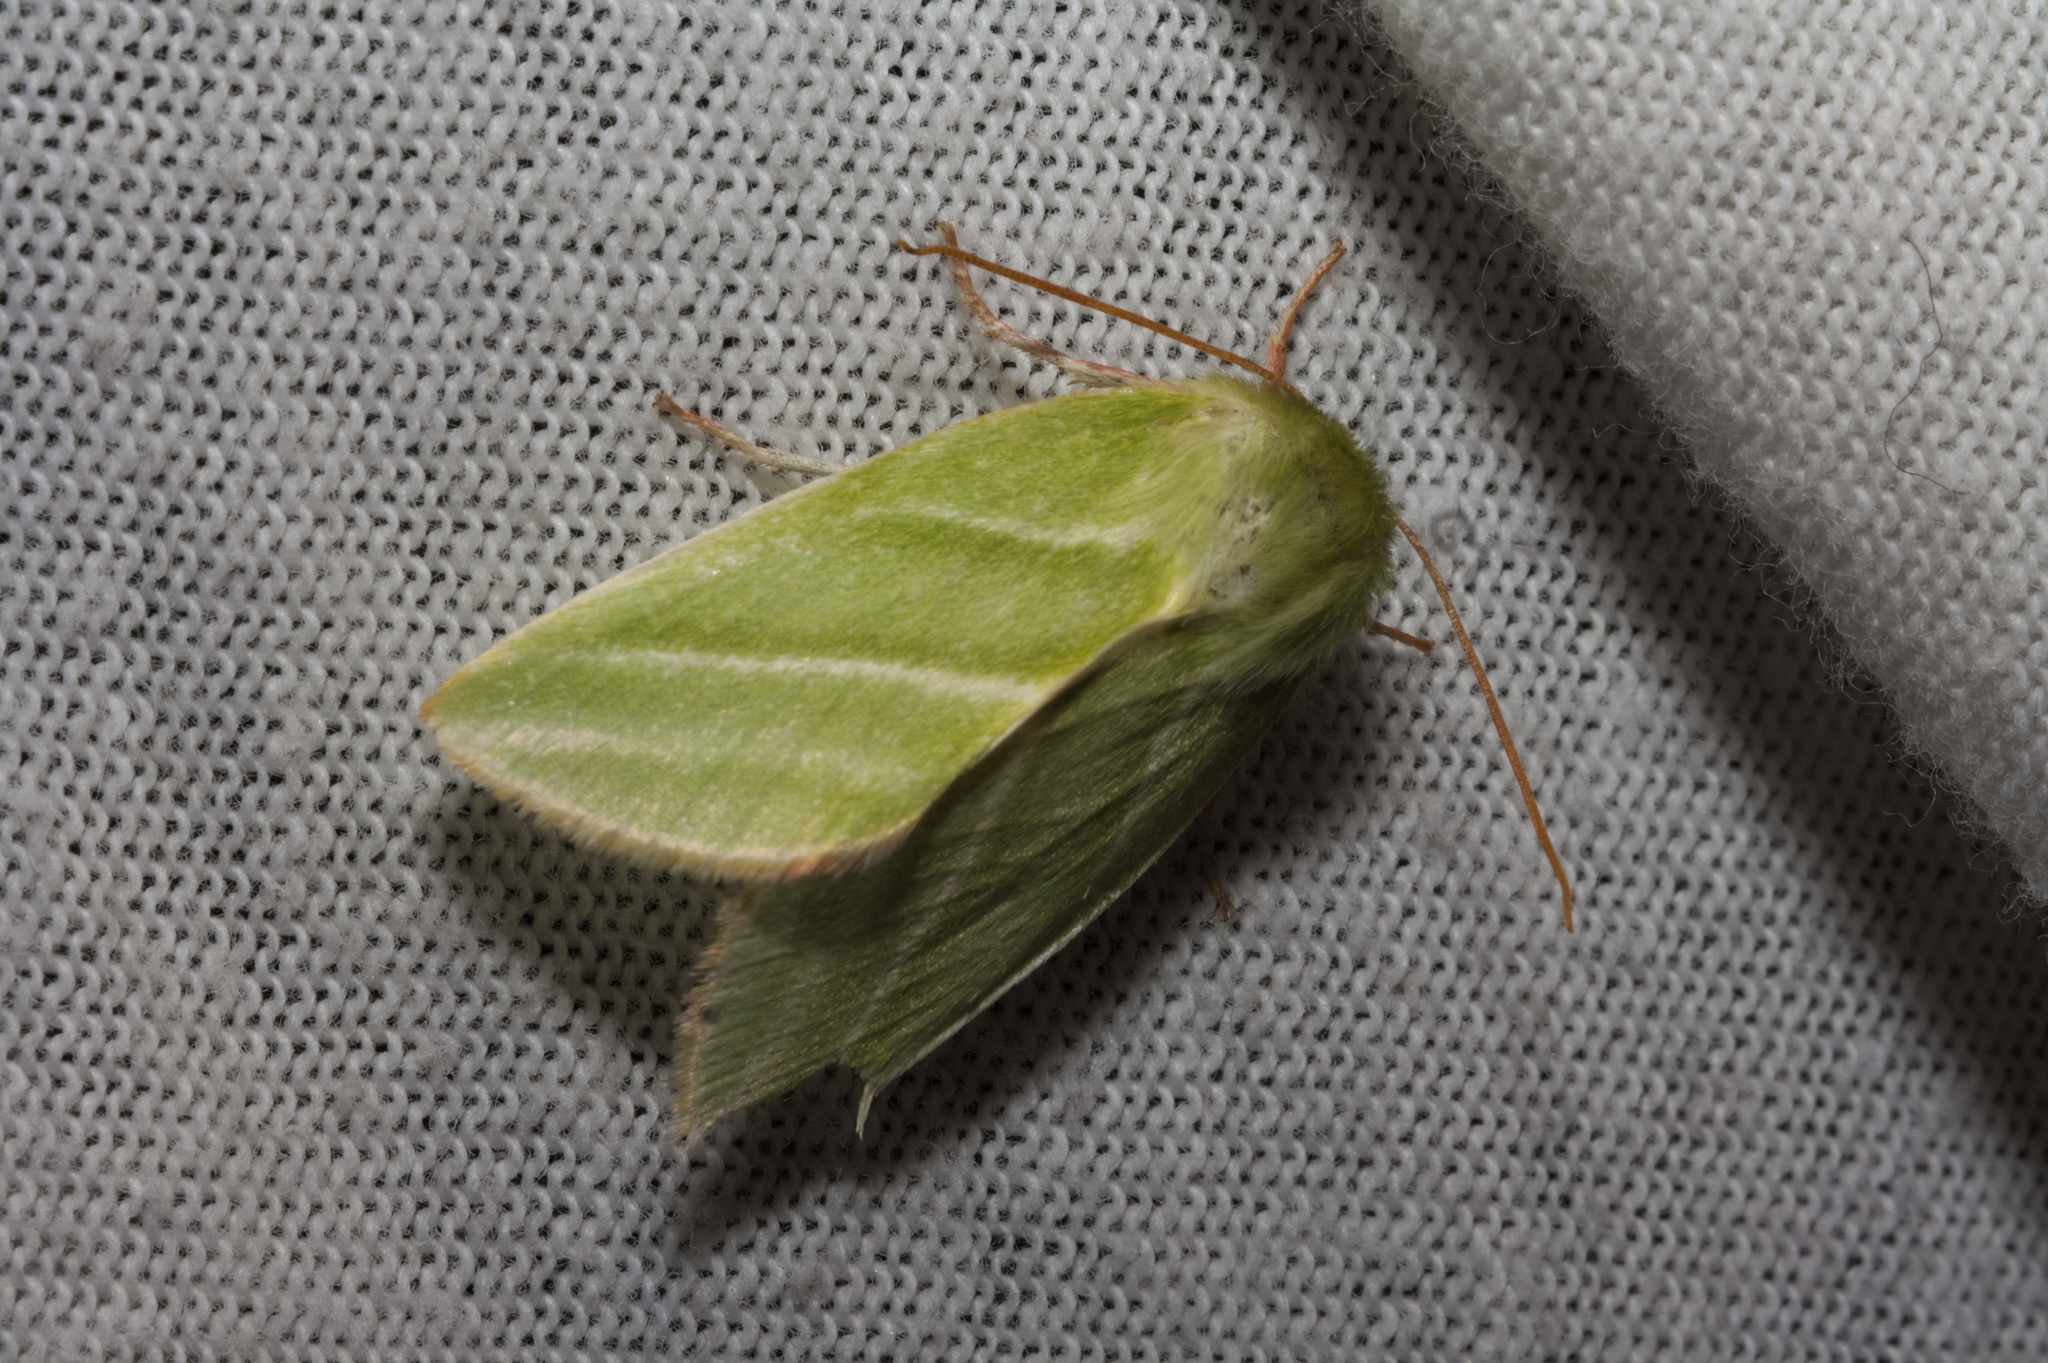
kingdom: Animalia
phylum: Arthropoda
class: Insecta
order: Lepidoptera
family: Nolidae
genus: Pseudoips
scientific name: Pseudoips prasinana
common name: Green silver-lines
